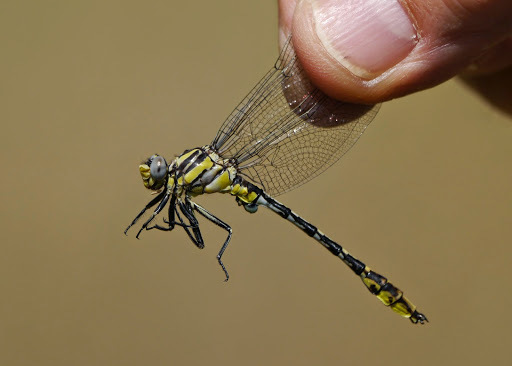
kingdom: Animalia
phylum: Arthropoda
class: Insecta
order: Odonata
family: Gomphidae
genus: Phanogomphus
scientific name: Phanogomphus militaris
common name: Sulphur-tipped clubtail
